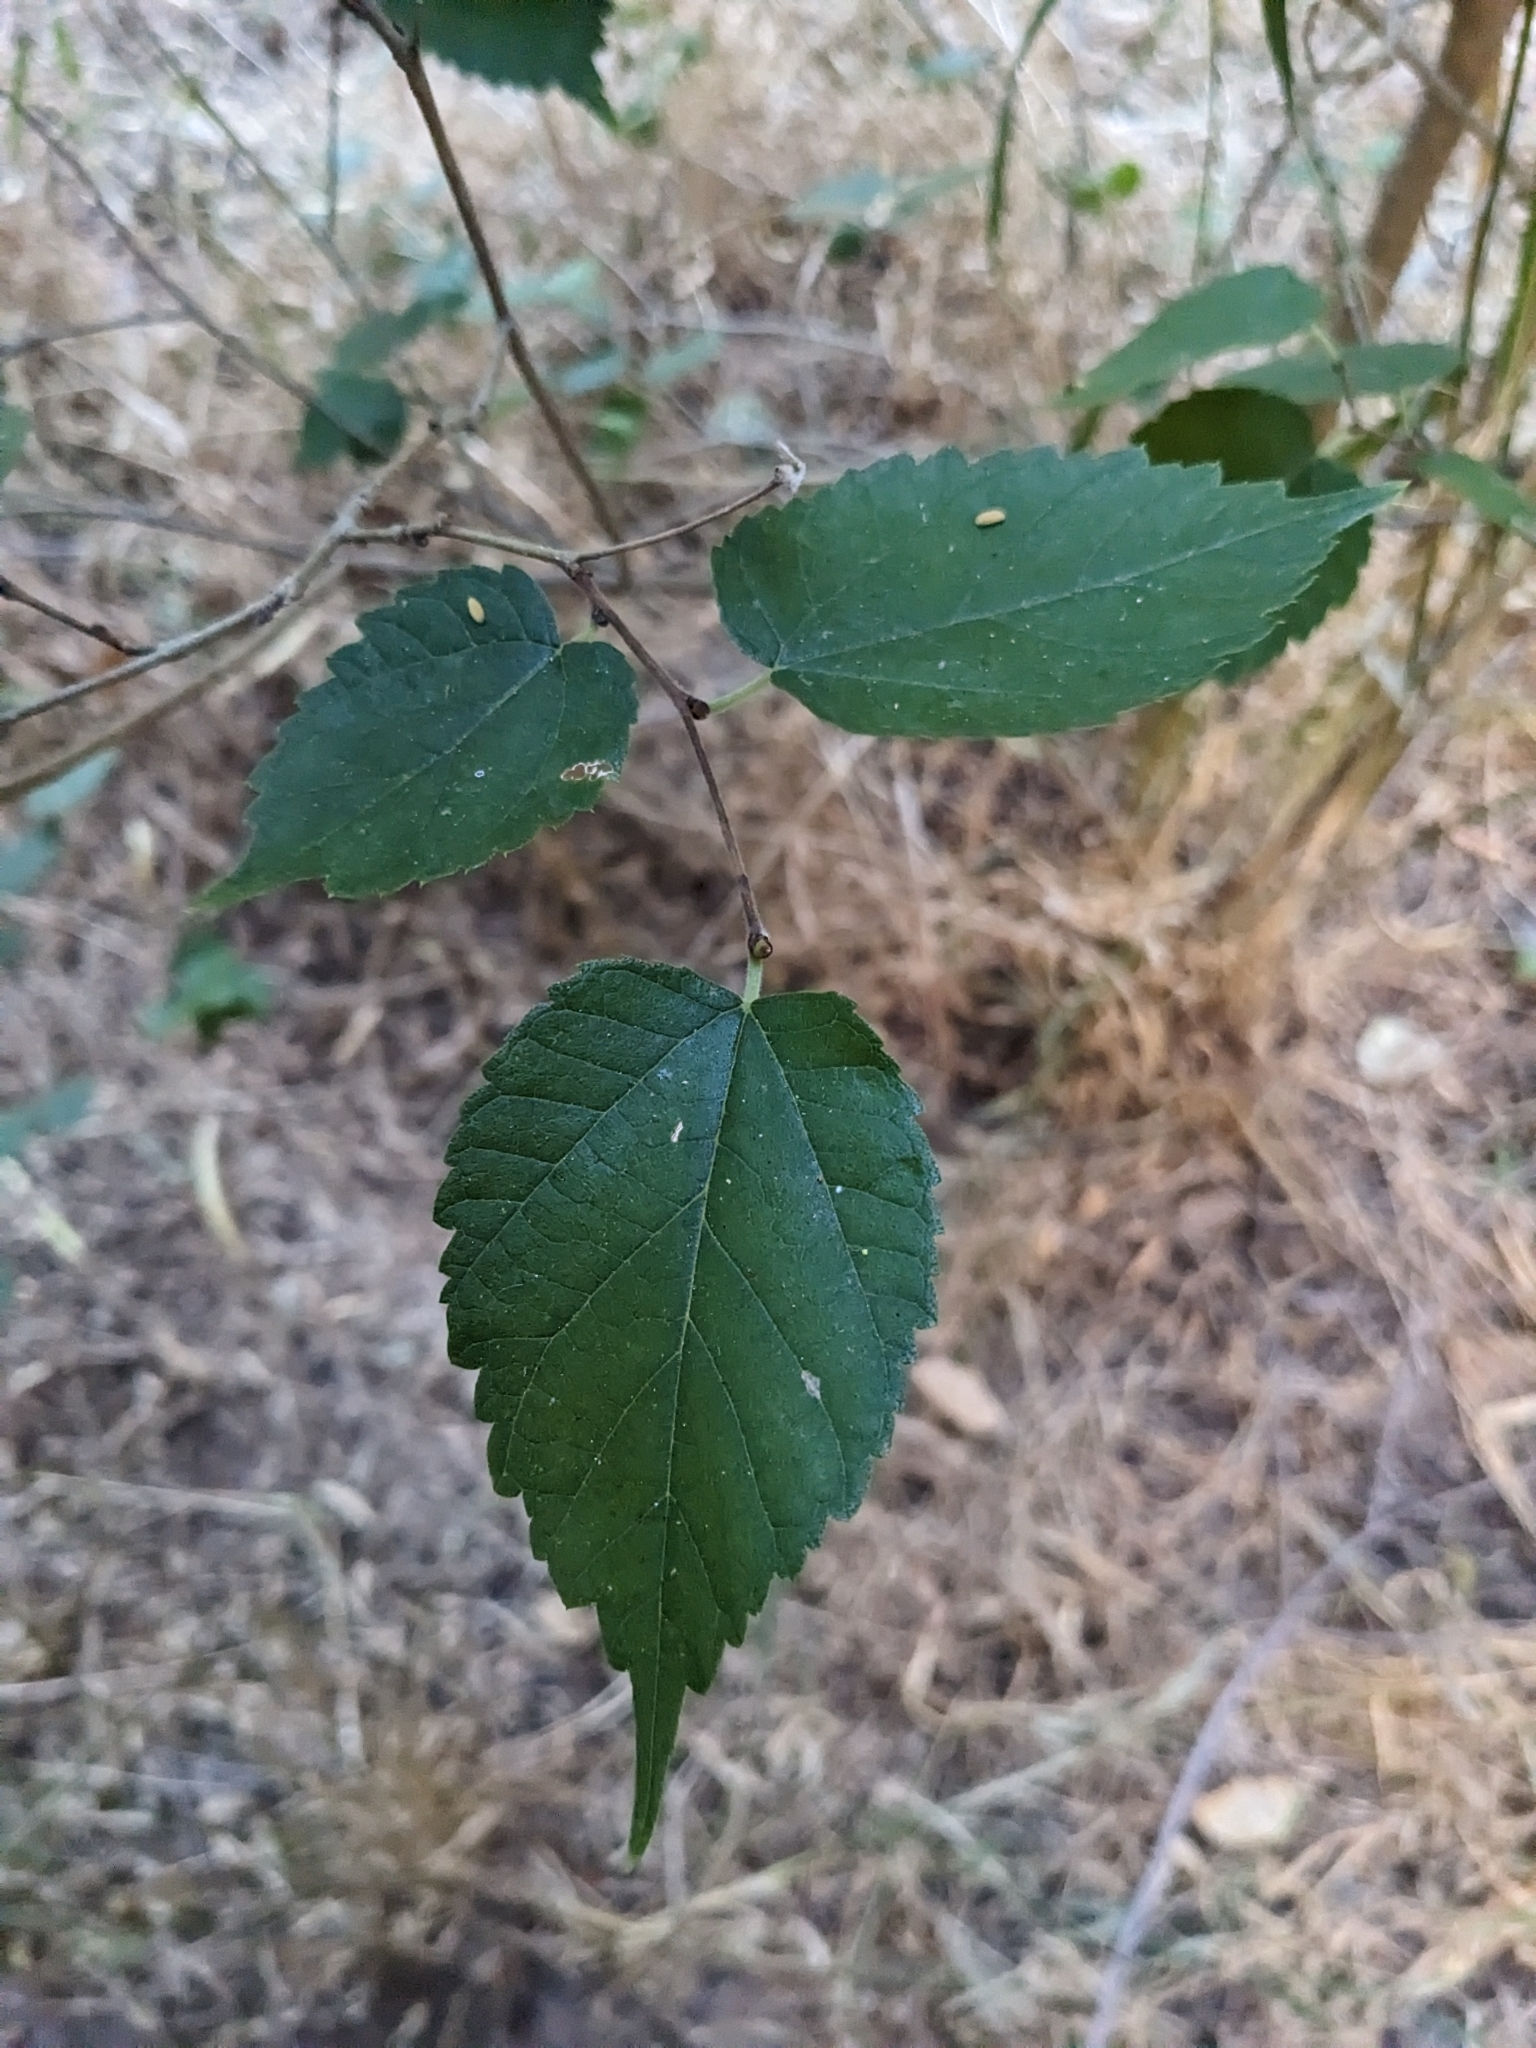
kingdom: Plantae
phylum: Tracheophyta
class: Magnoliopsida
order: Rosales
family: Moraceae
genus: Morus
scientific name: Morus microphylla
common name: Mexican mulberry
